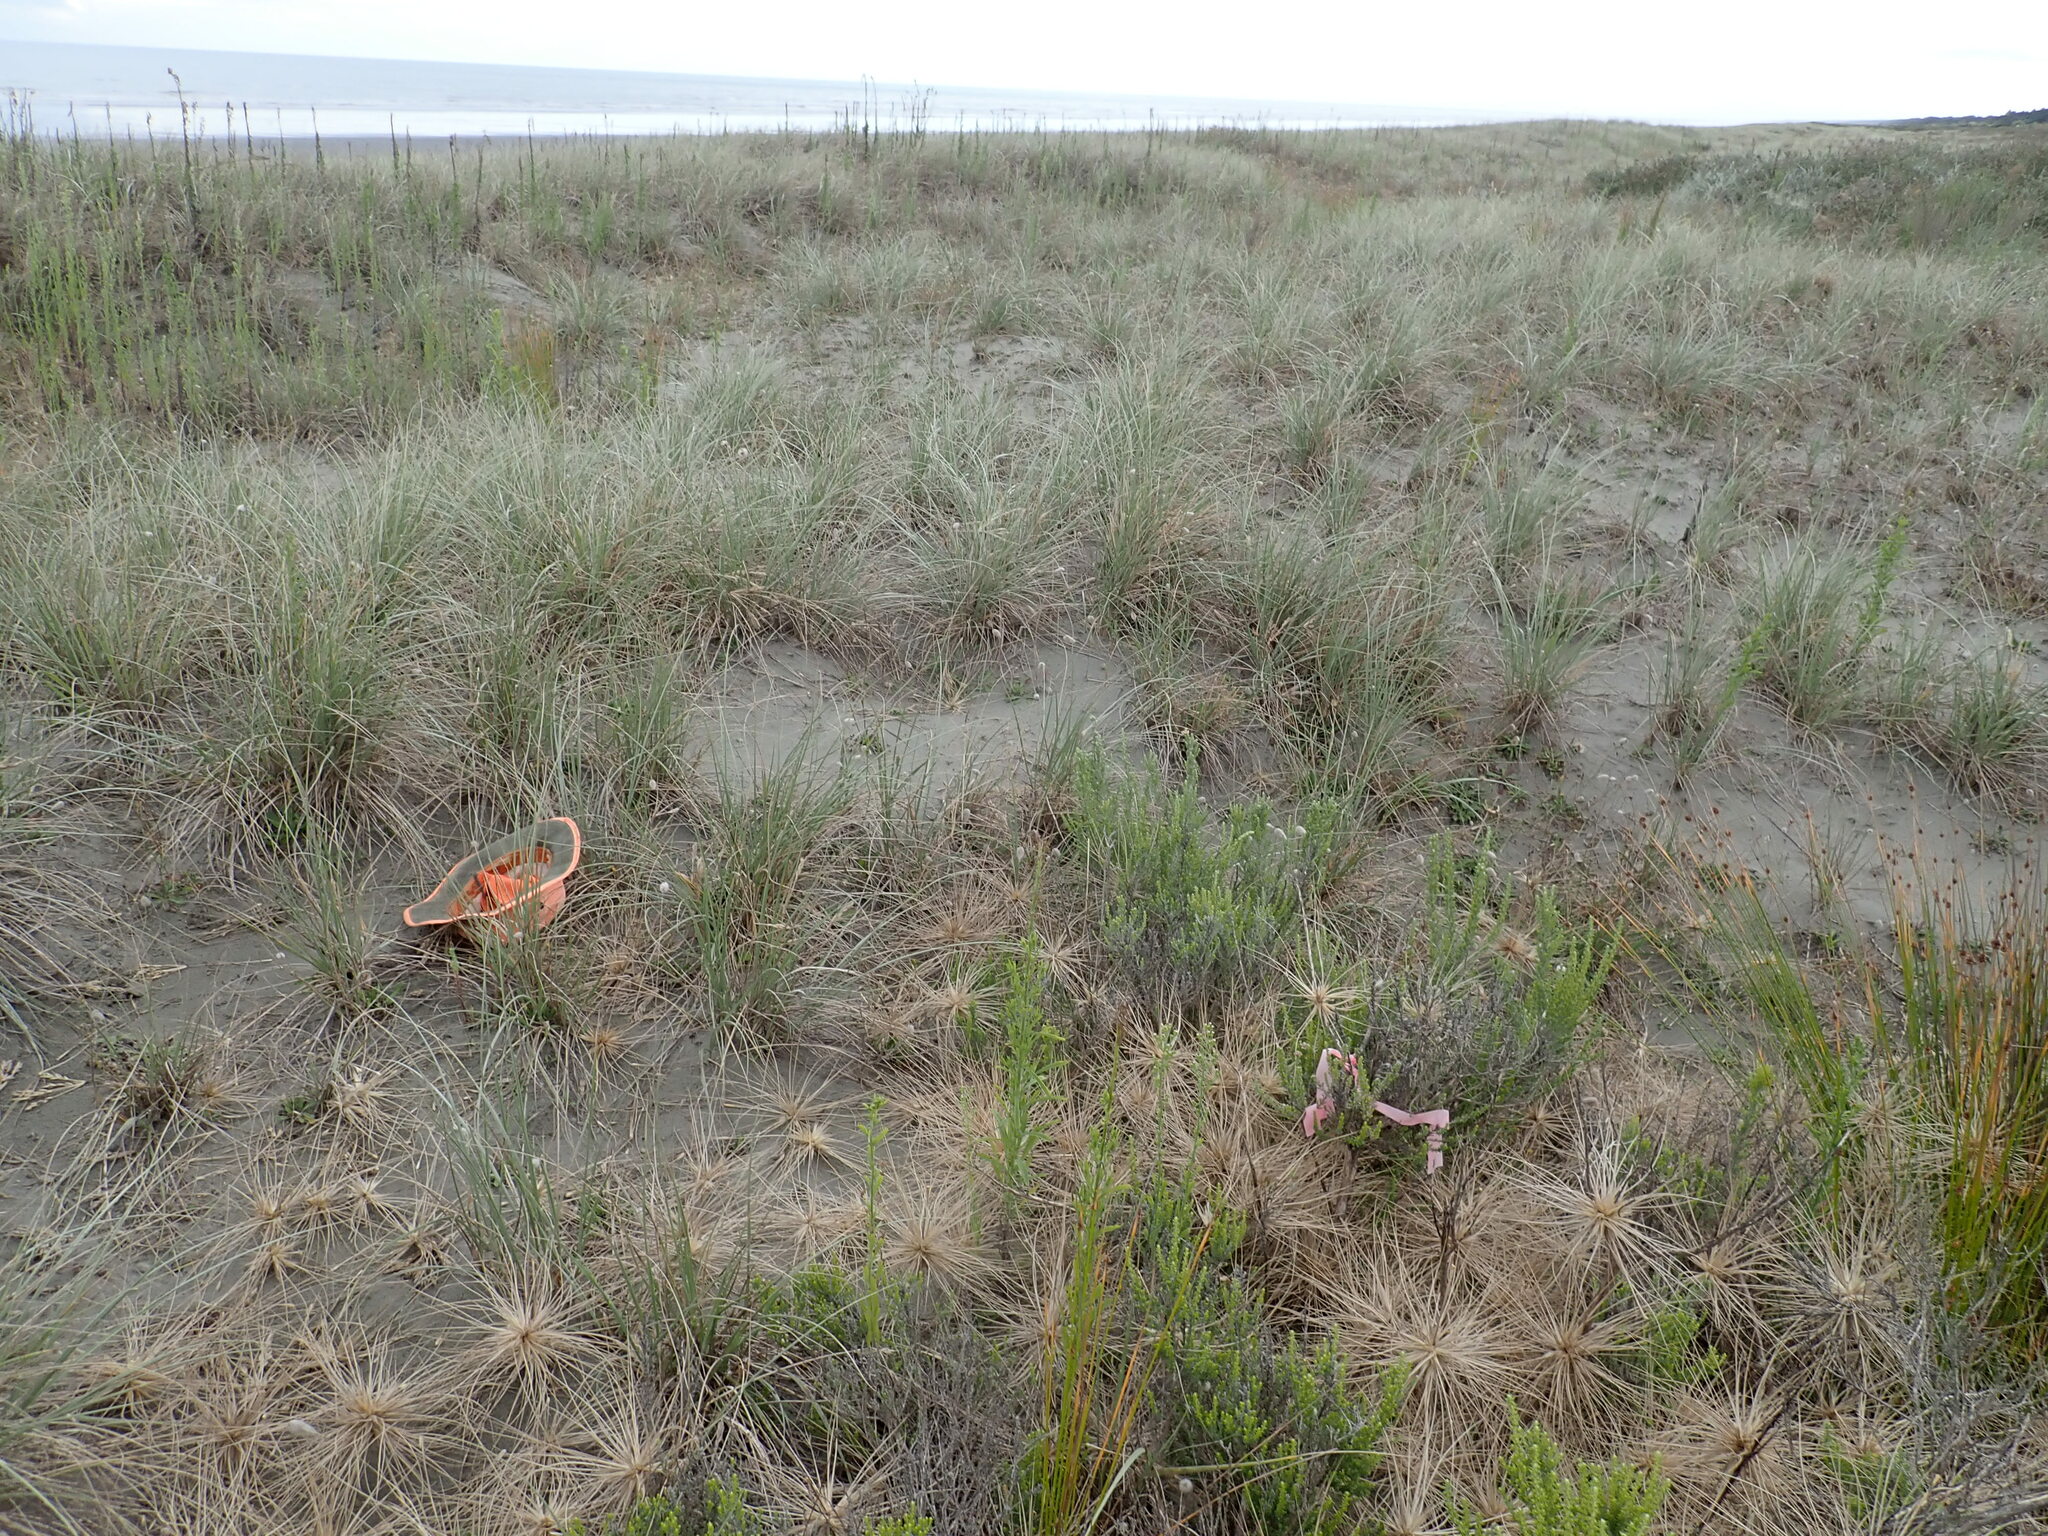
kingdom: Plantae
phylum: Tracheophyta
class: Magnoliopsida
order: Malpighiales
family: Euphorbiaceae
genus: Euphorbia
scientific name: Euphorbia paralias
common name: Sea spurge
